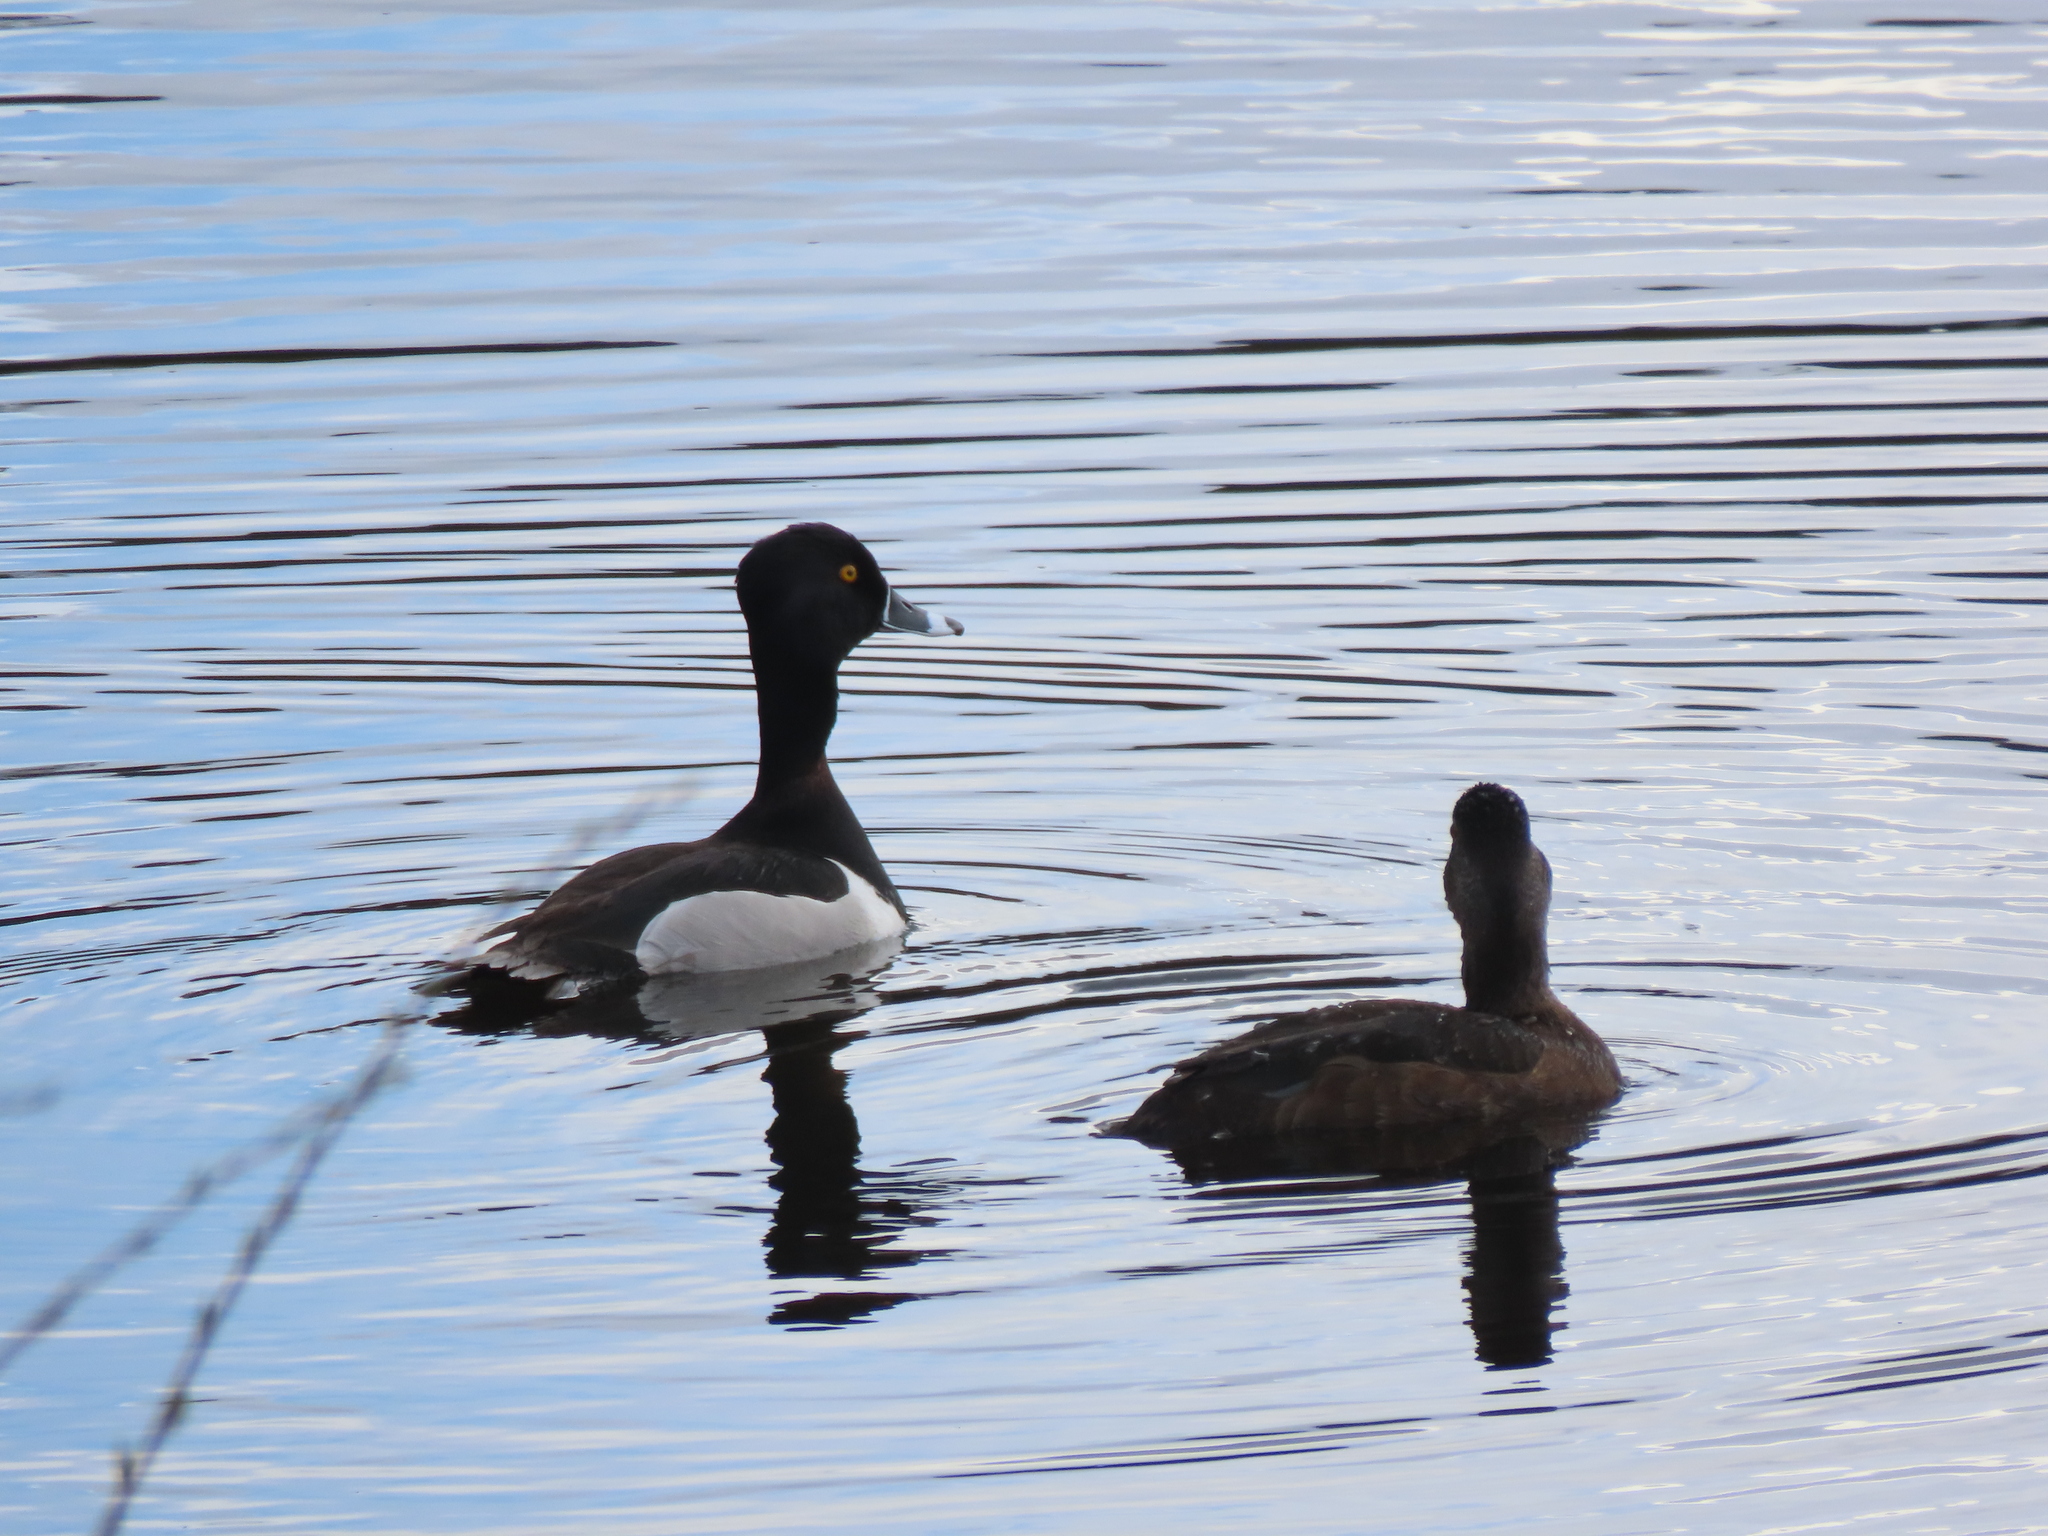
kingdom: Animalia
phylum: Chordata
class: Aves
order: Anseriformes
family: Anatidae
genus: Aythya
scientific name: Aythya collaris
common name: Ring-necked duck
